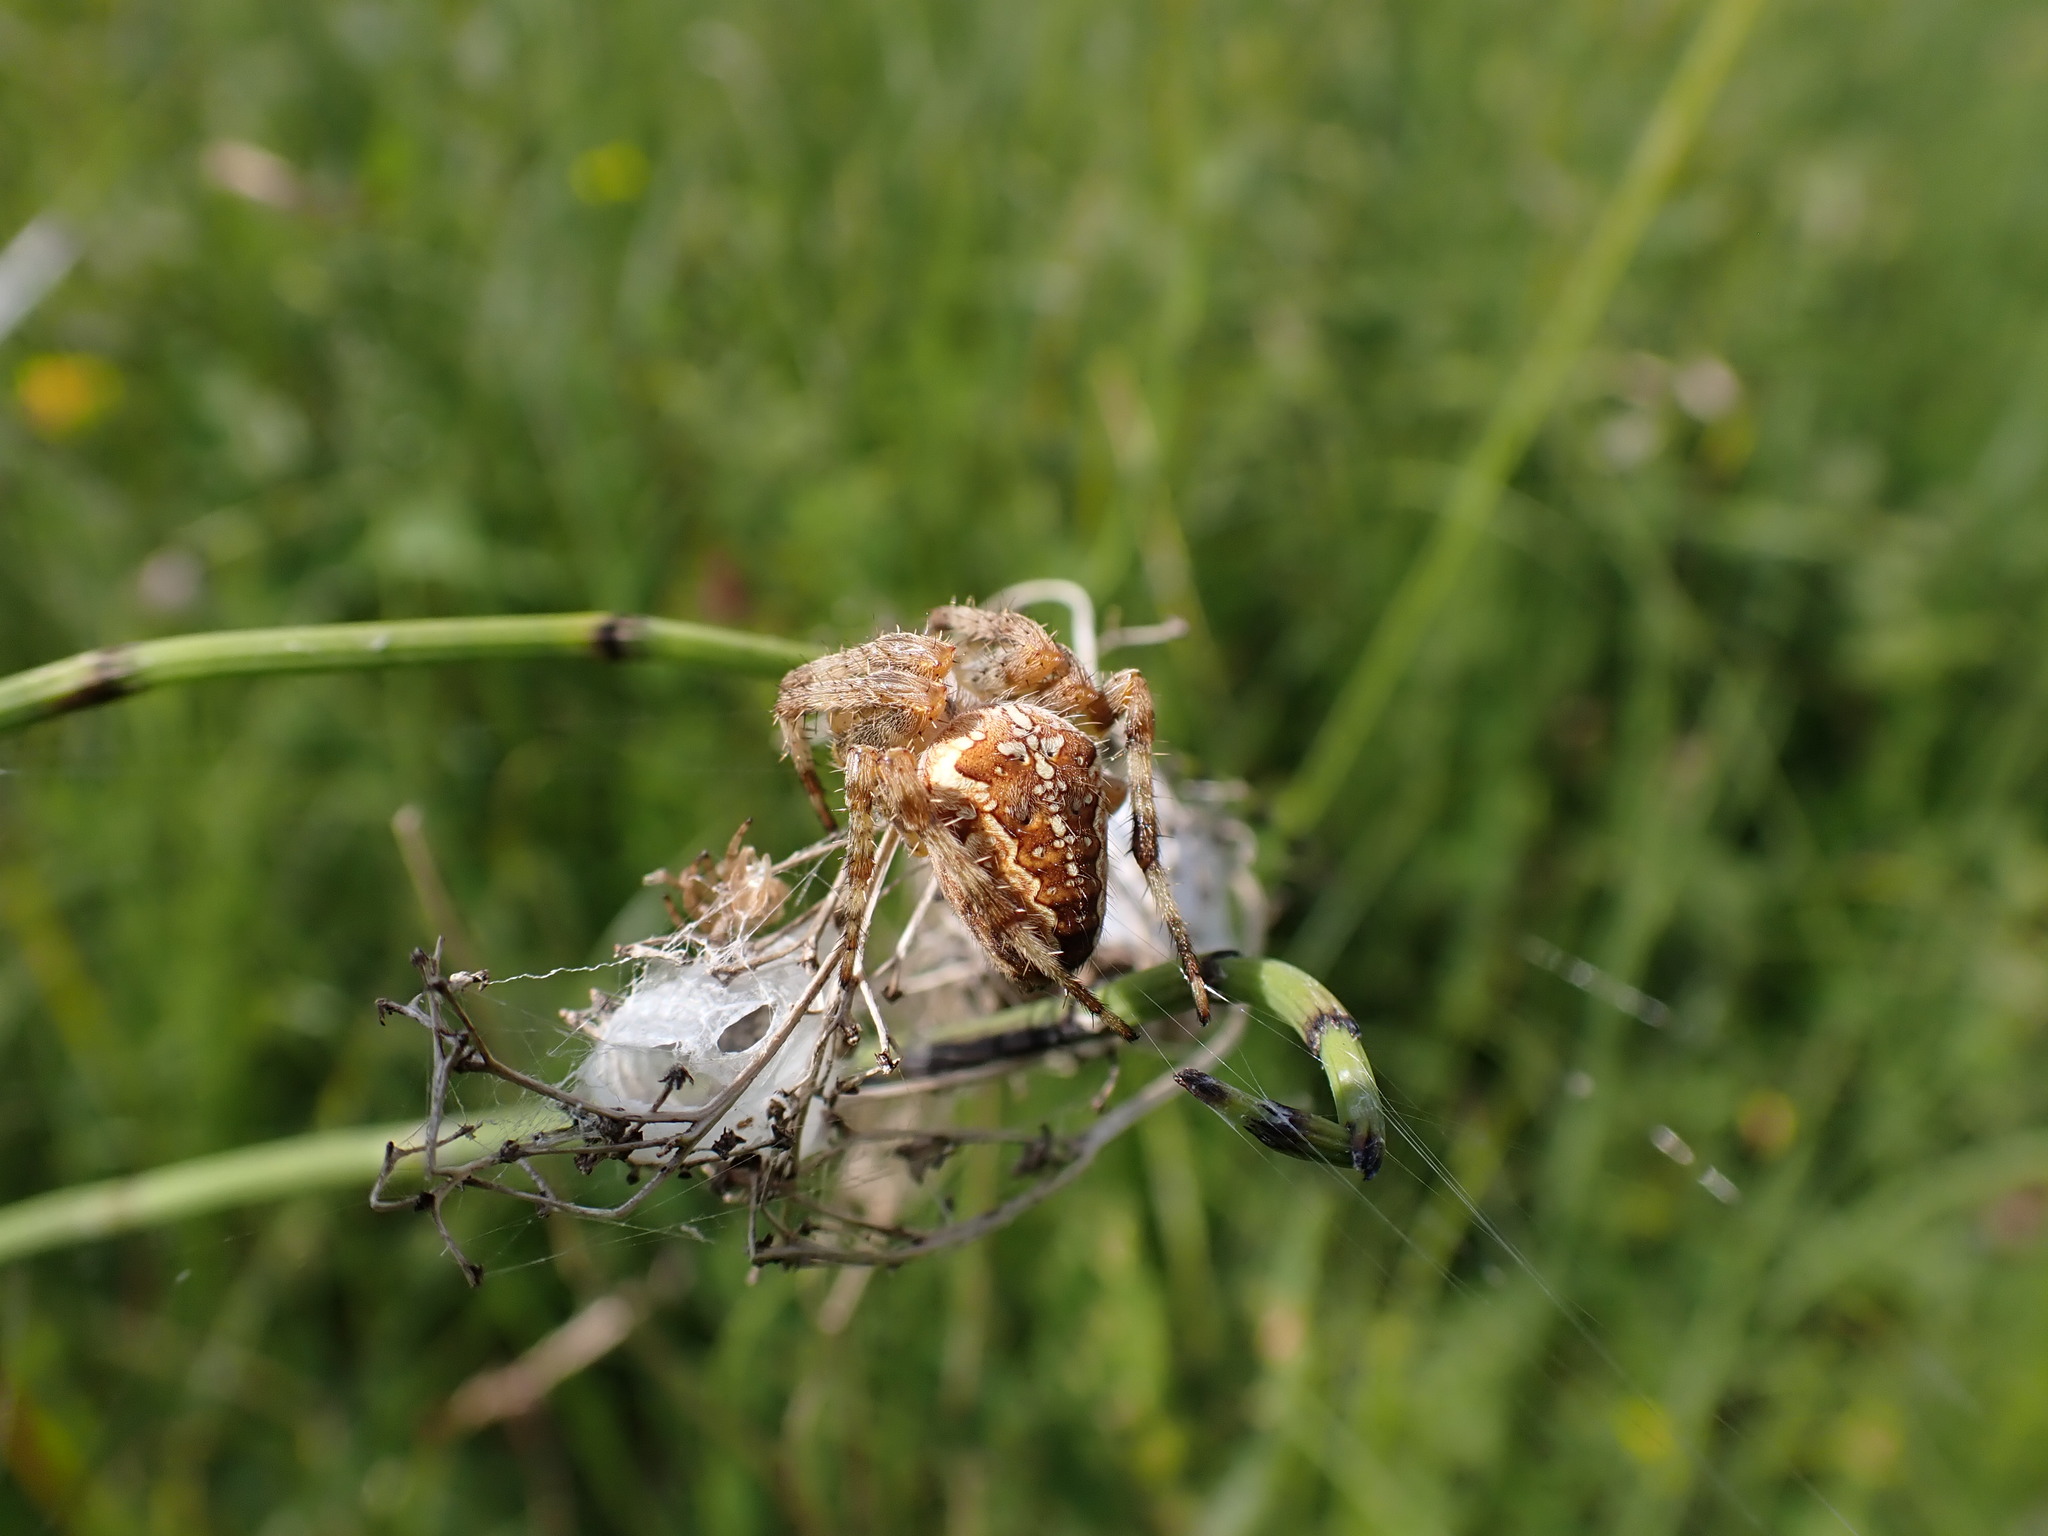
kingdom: Animalia
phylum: Arthropoda
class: Arachnida
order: Araneae
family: Araneidae
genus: Araneus
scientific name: Araneus diadematus
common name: Cross orbweaver
